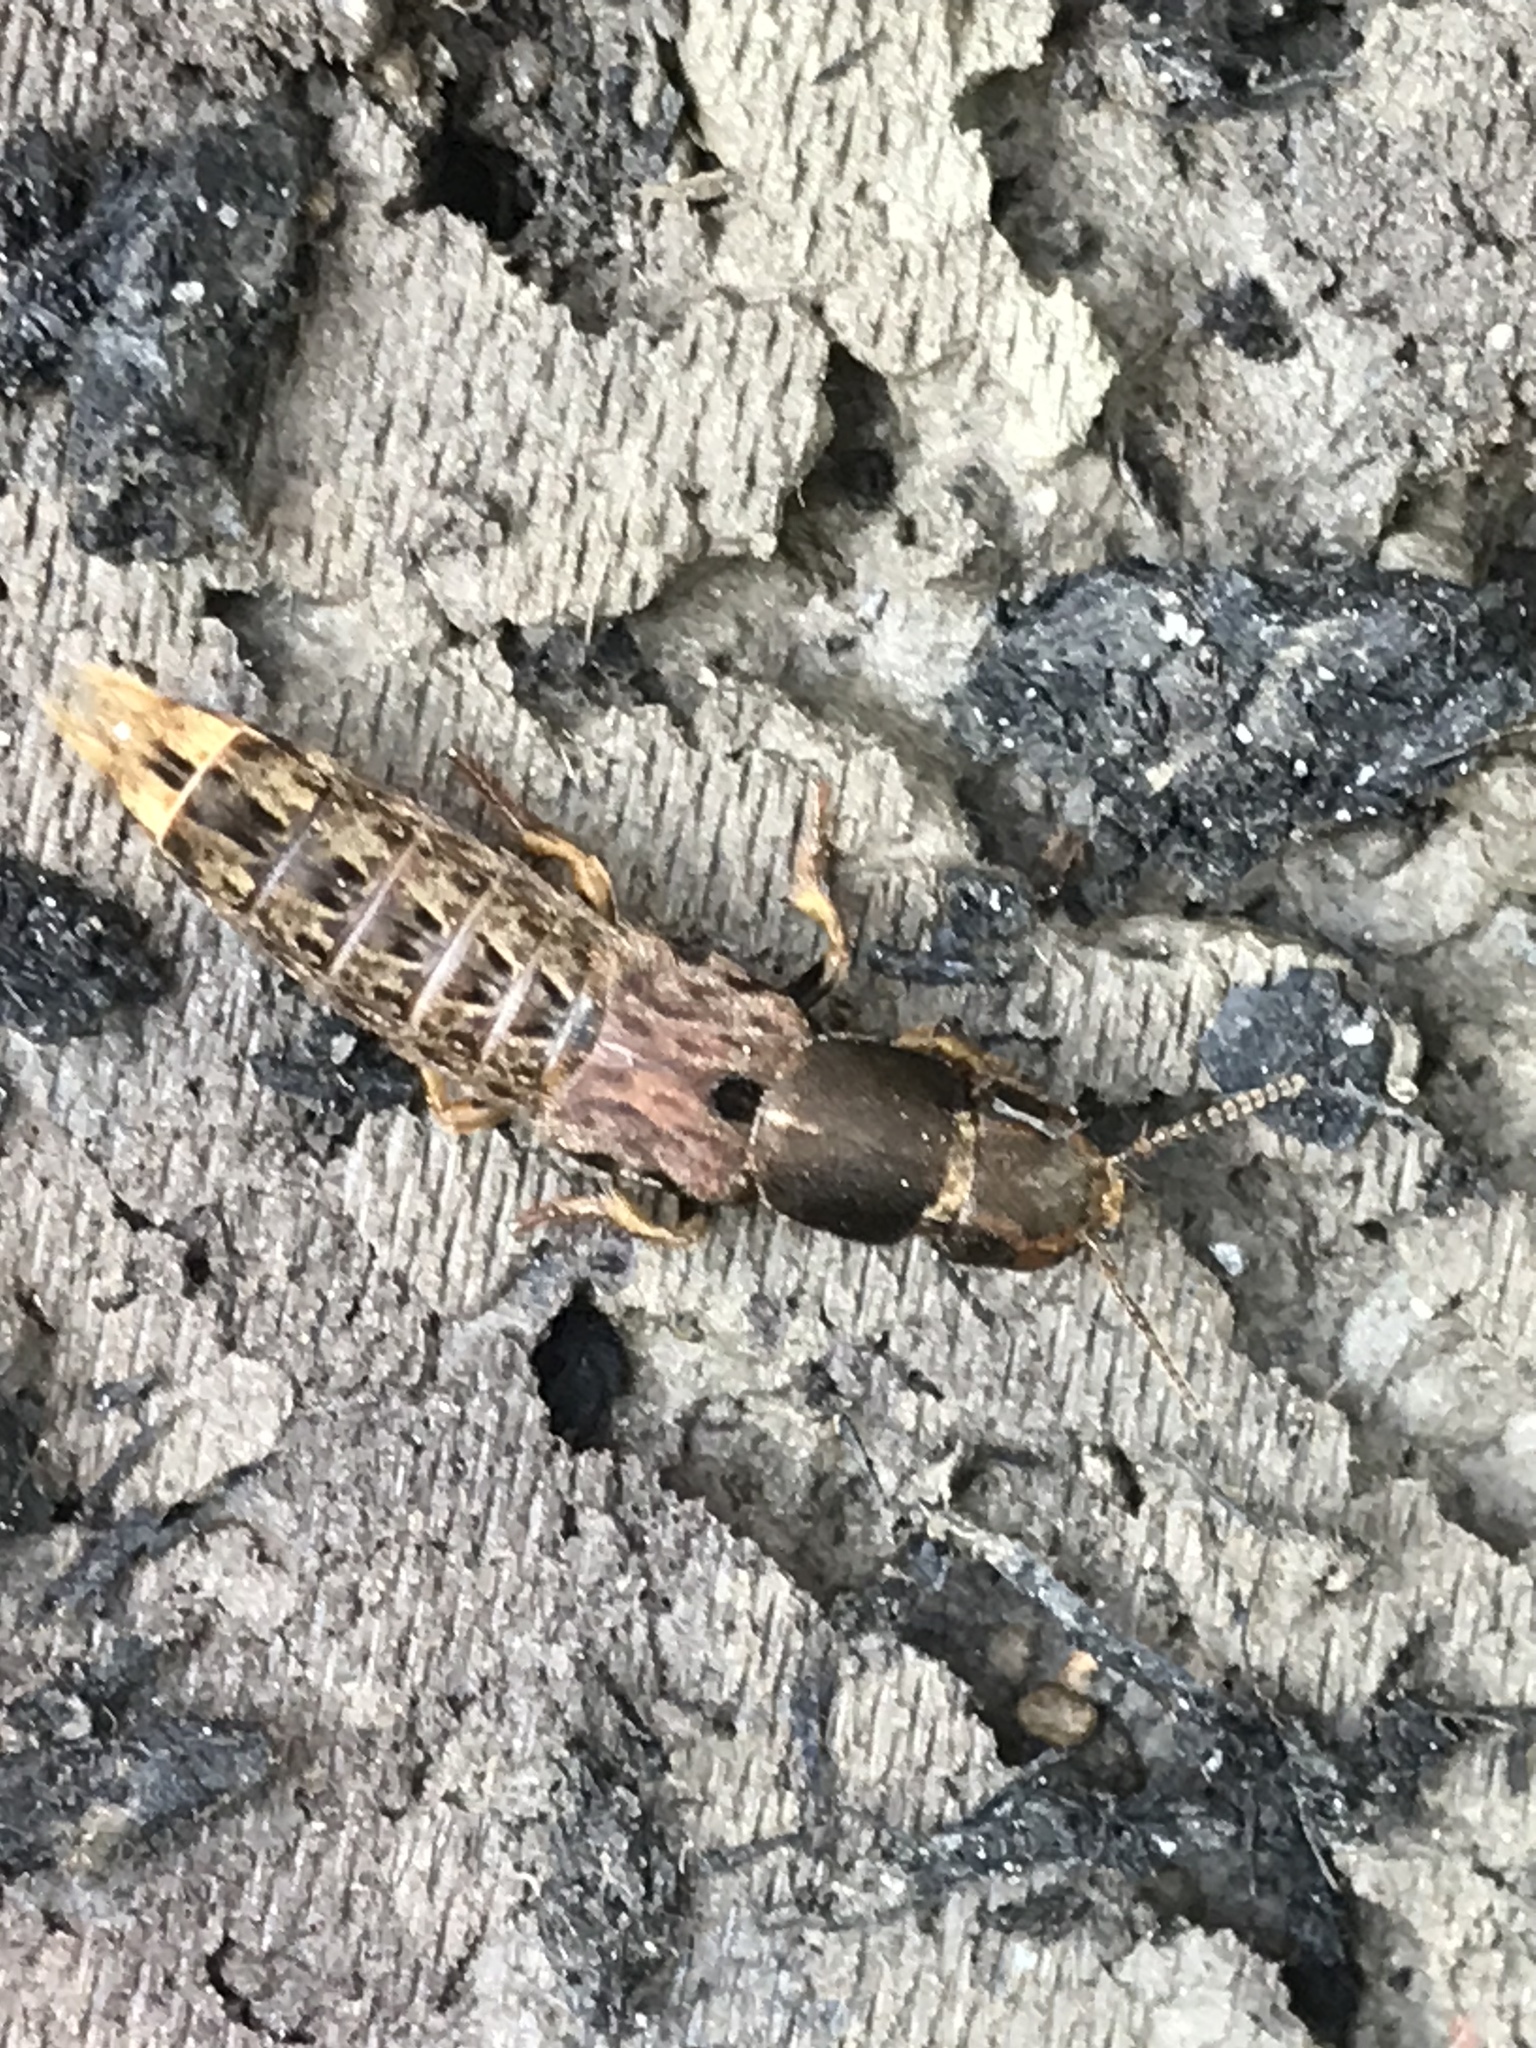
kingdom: Animalia
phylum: Arthropoda
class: Insecta
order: Coleoptera
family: Staphylinidae
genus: Platydracus
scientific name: Platydracus maculosus
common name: Brown rove beetle
